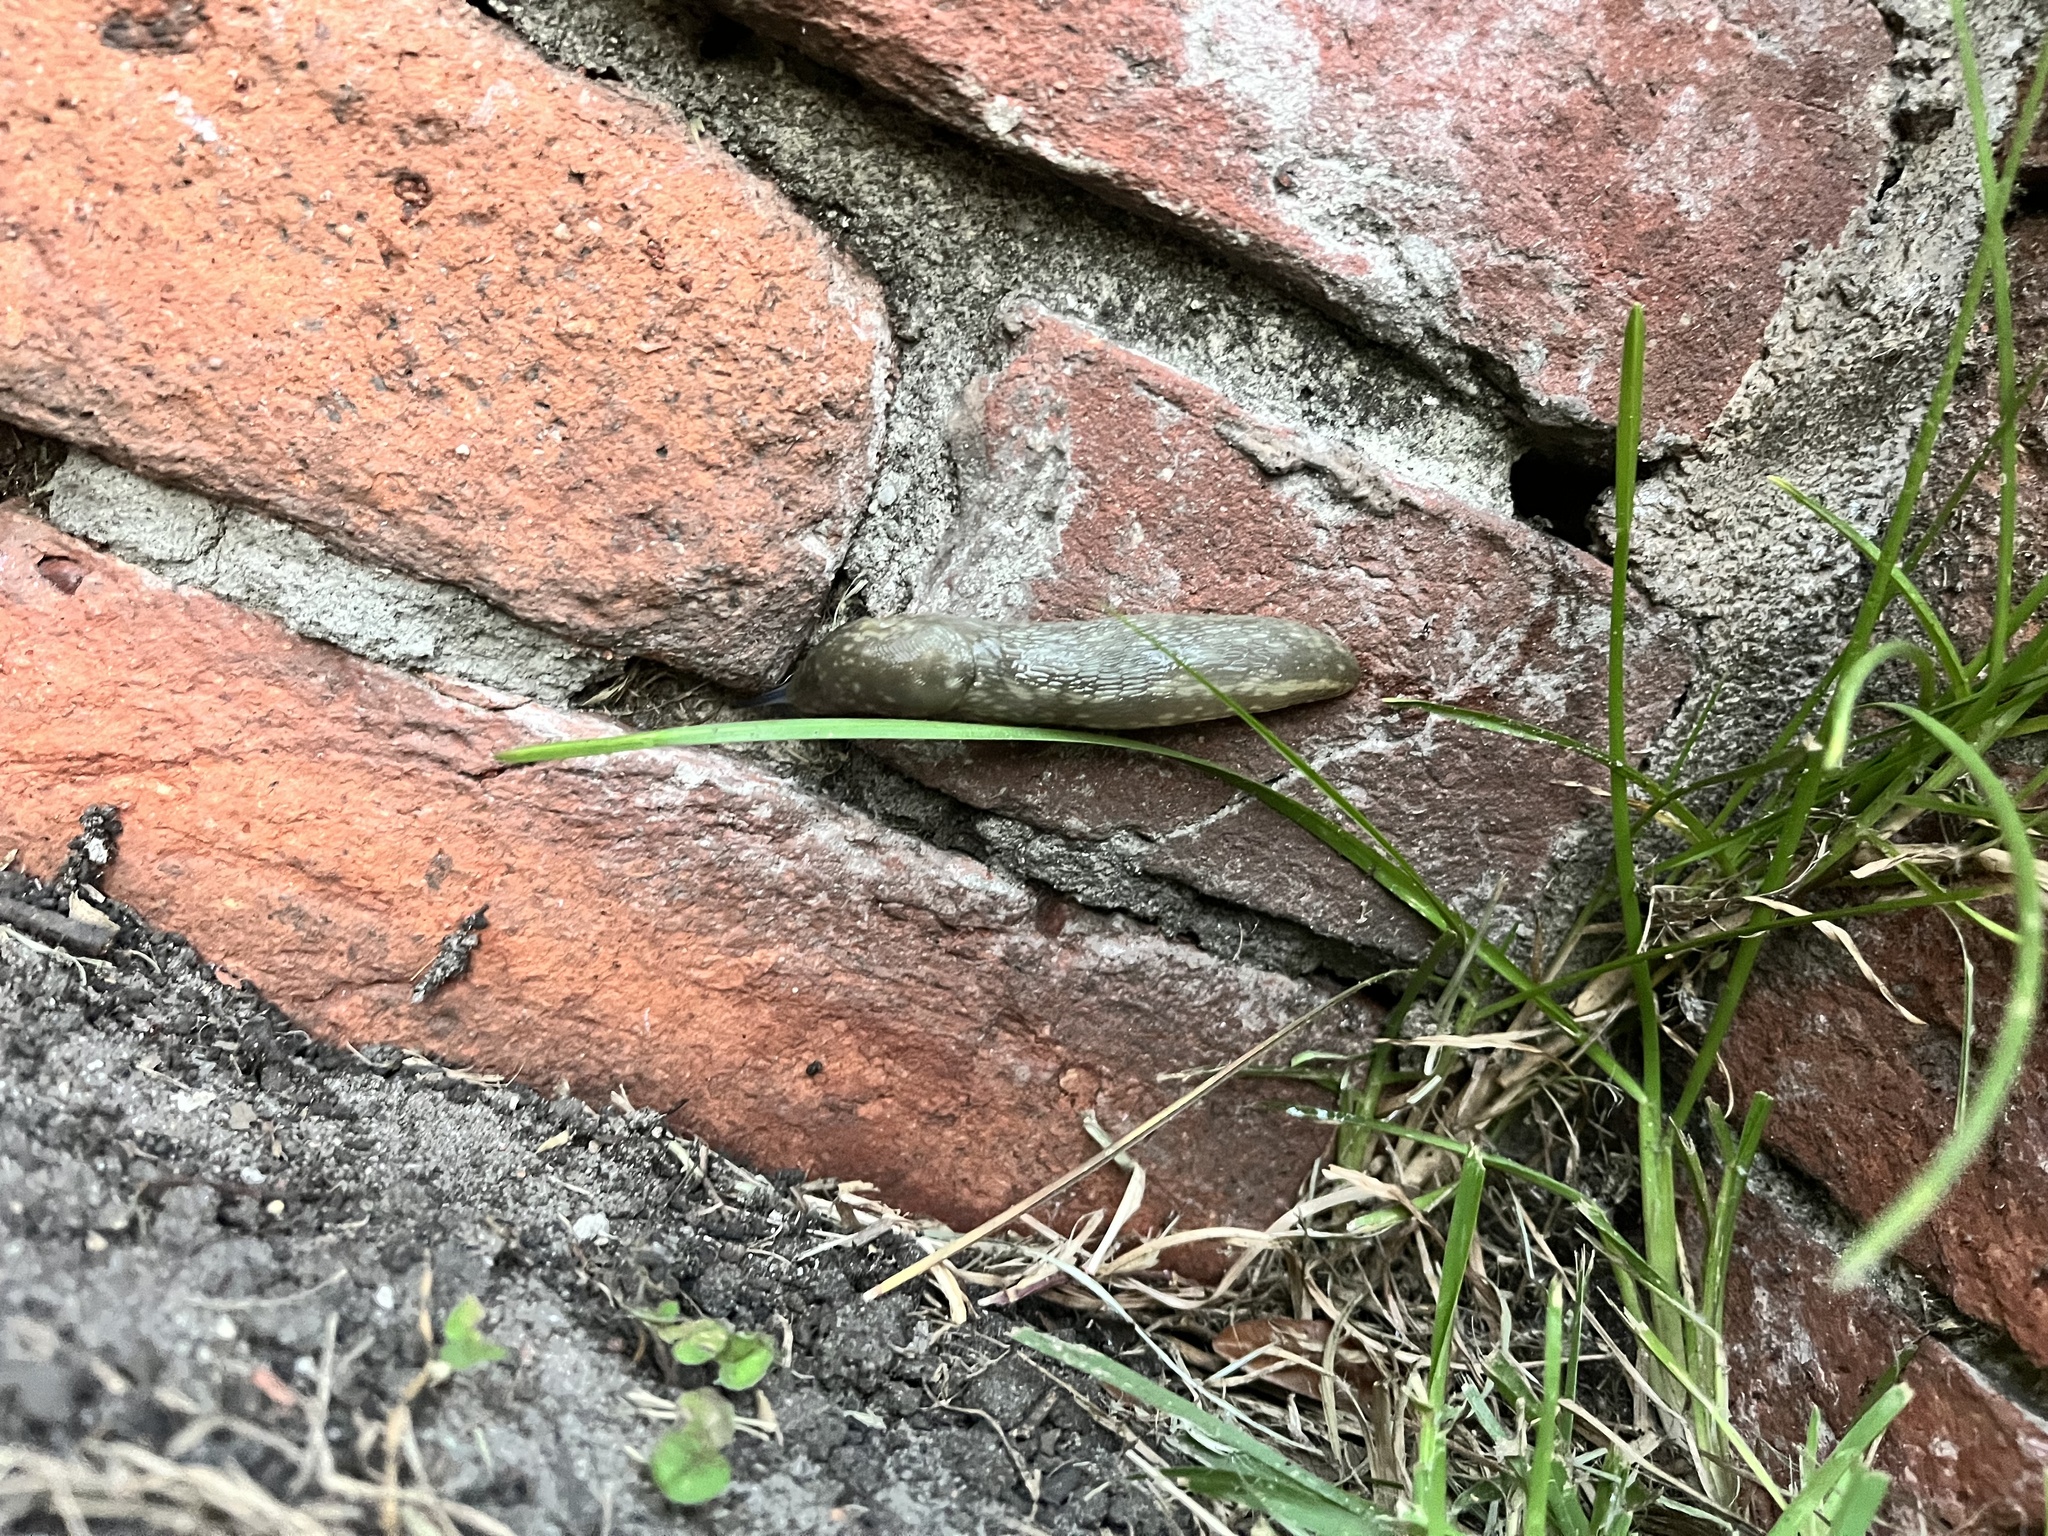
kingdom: Animalia
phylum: Mollusca
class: Gastropoda
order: Stylommatophora
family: Limacidae
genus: Limacus
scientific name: Limacus flavus
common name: Yellow gardenslug
